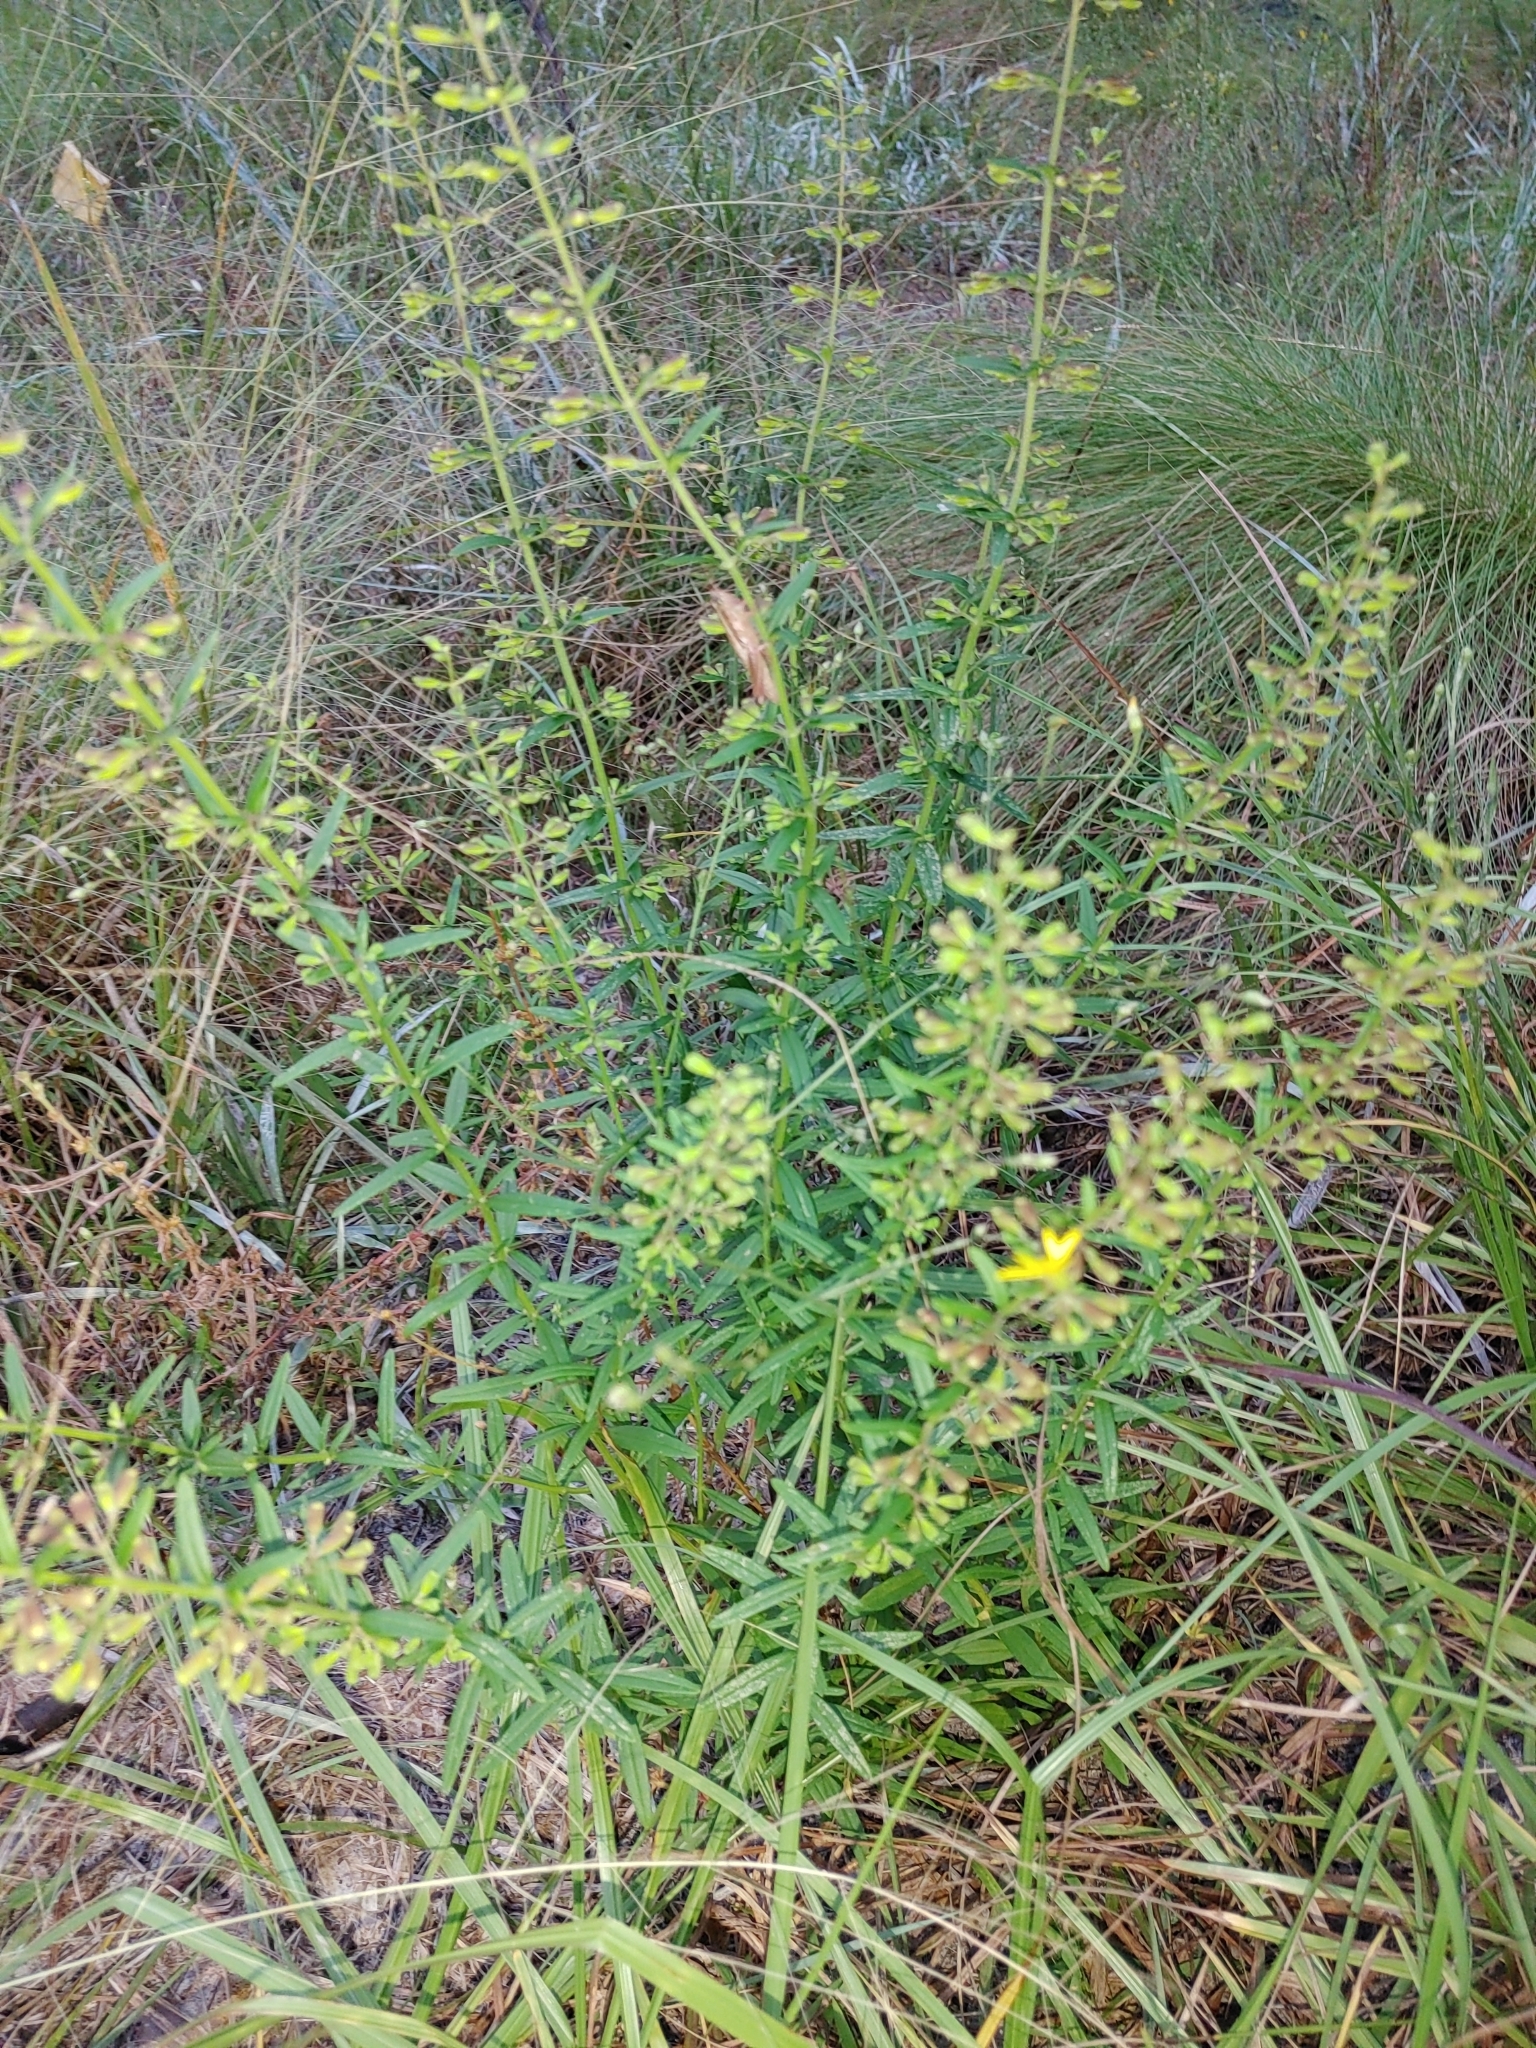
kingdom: Plantae
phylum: Tracheophyta
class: Magnoliopsida
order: Lamiales
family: Lamiaceae
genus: Dicerandra
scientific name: Dicerandra linearifolia
